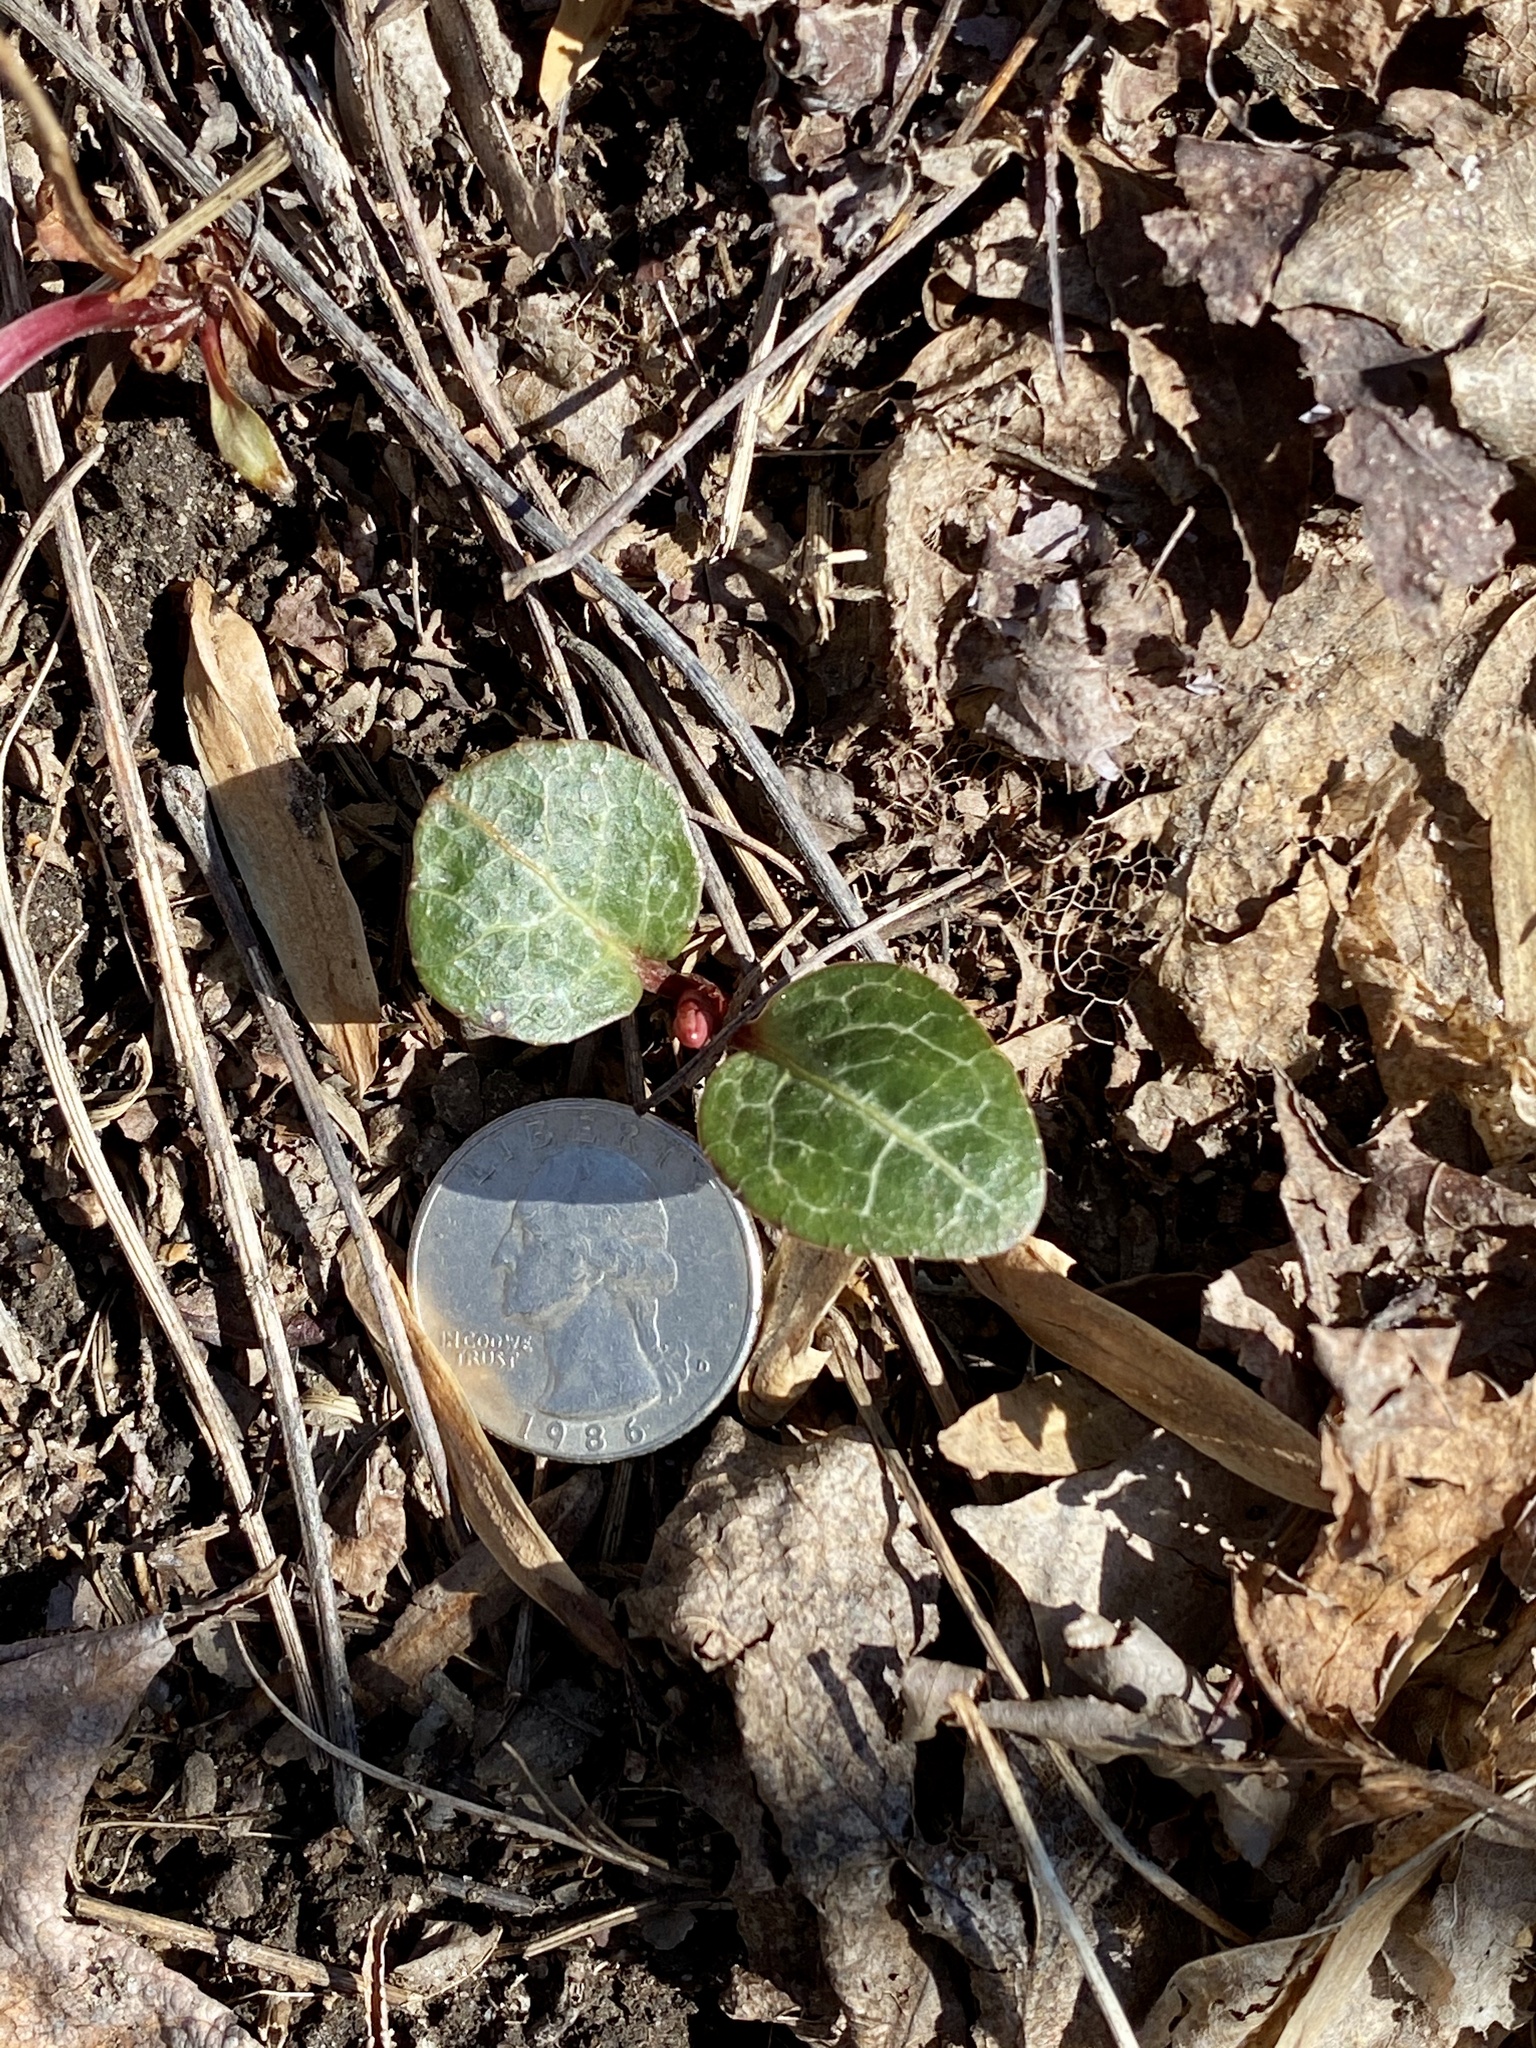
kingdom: Plantae
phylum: Tracheophyta
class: Magnoliopsida
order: Ericales
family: Ericaceae
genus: Pyrola
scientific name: Pyrola americana
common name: American wintergreen
